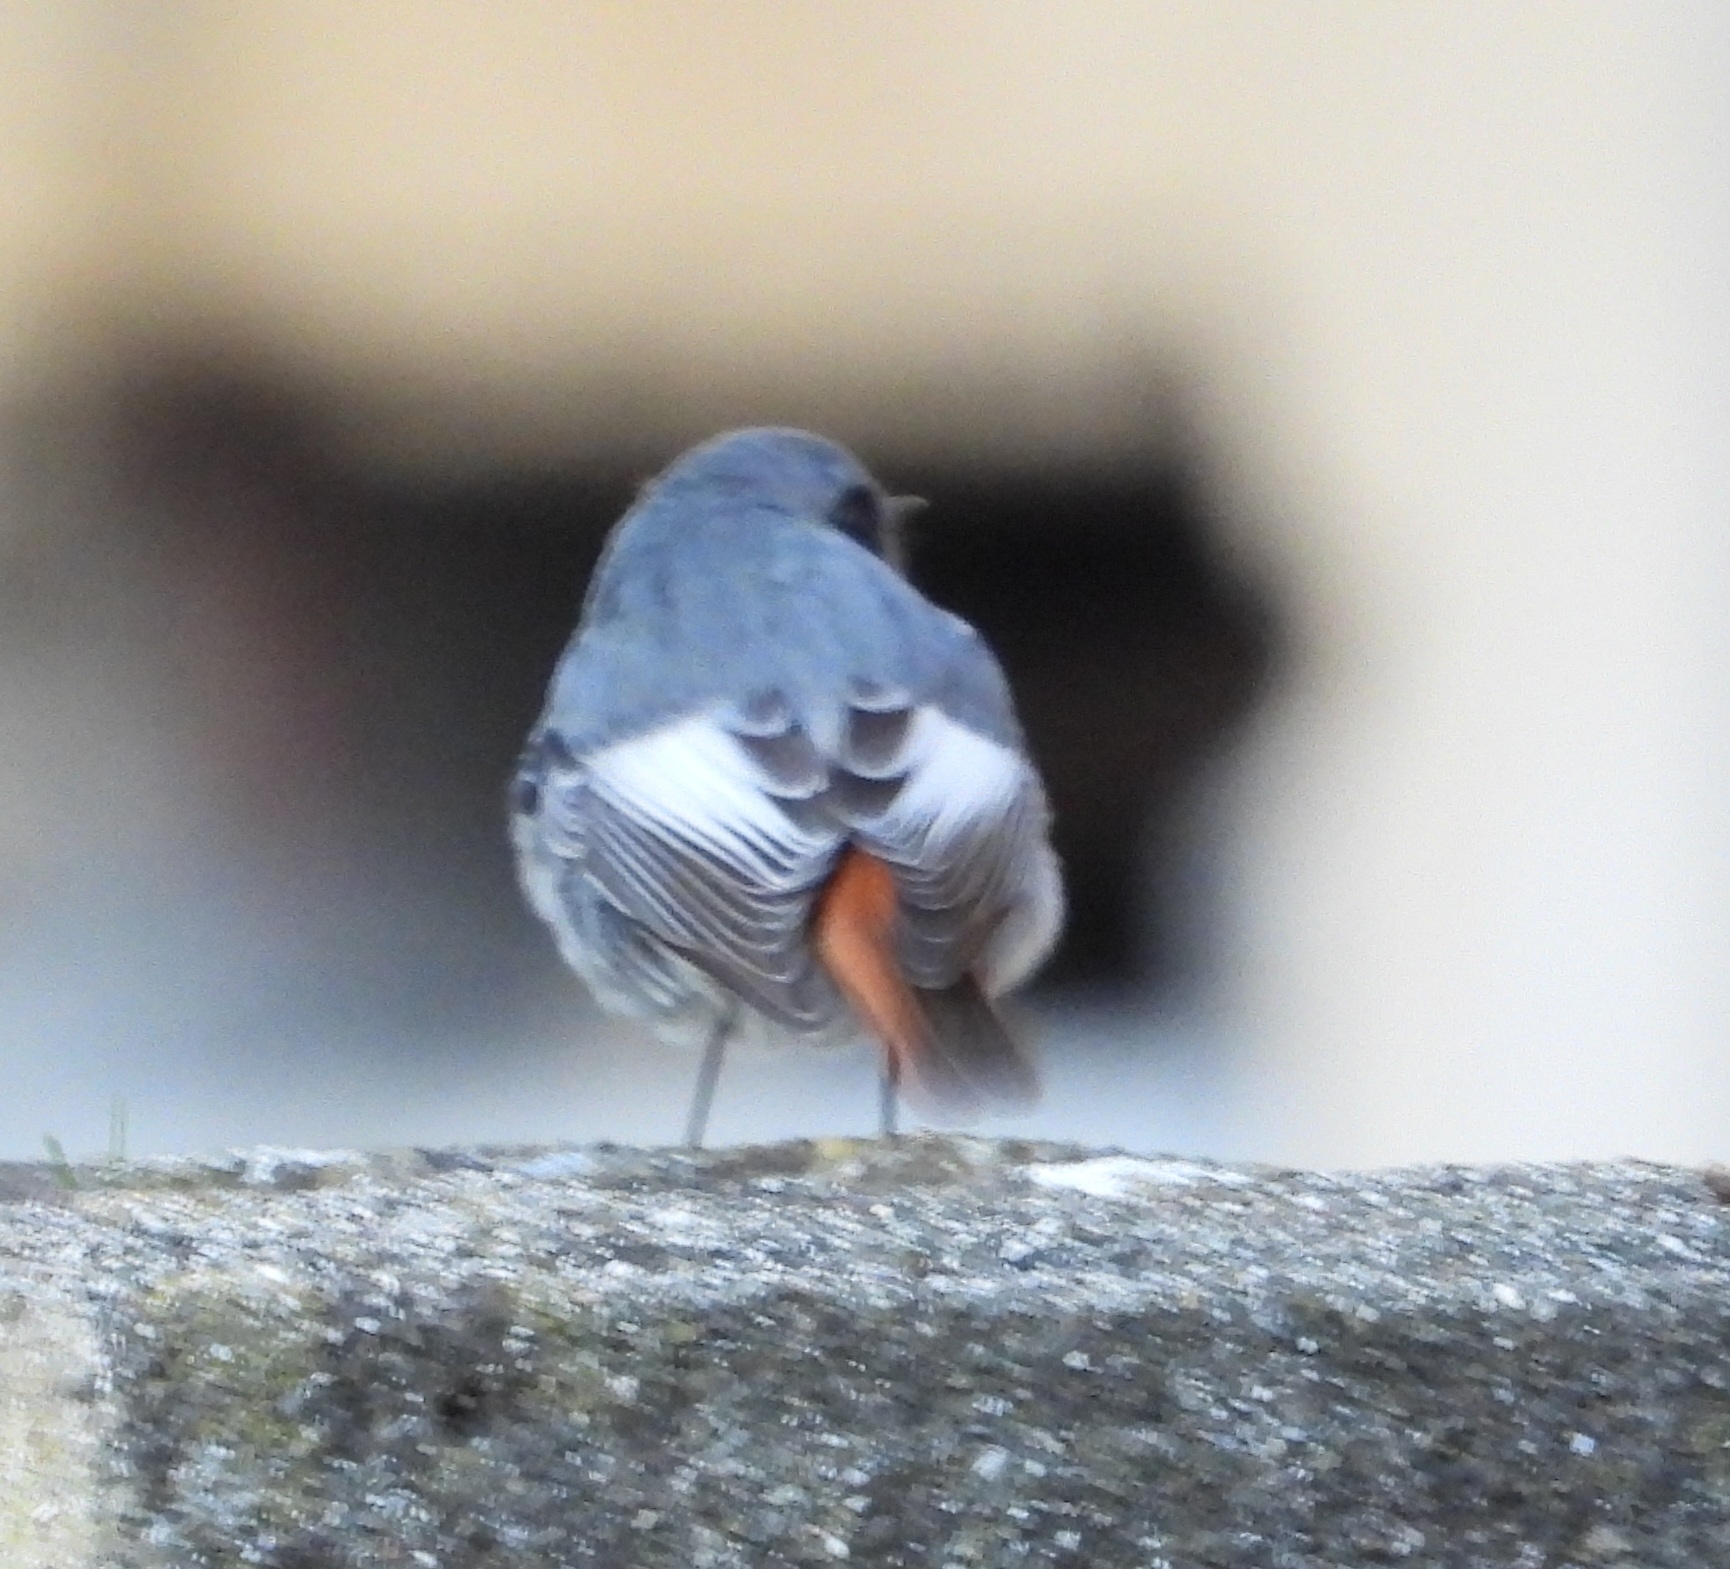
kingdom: Animalia
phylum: Chordata
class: Aves
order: Passeriformes
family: Muscicapidae
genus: Phoenicurus
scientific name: Phoenicurus ochruros
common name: Black redstart
